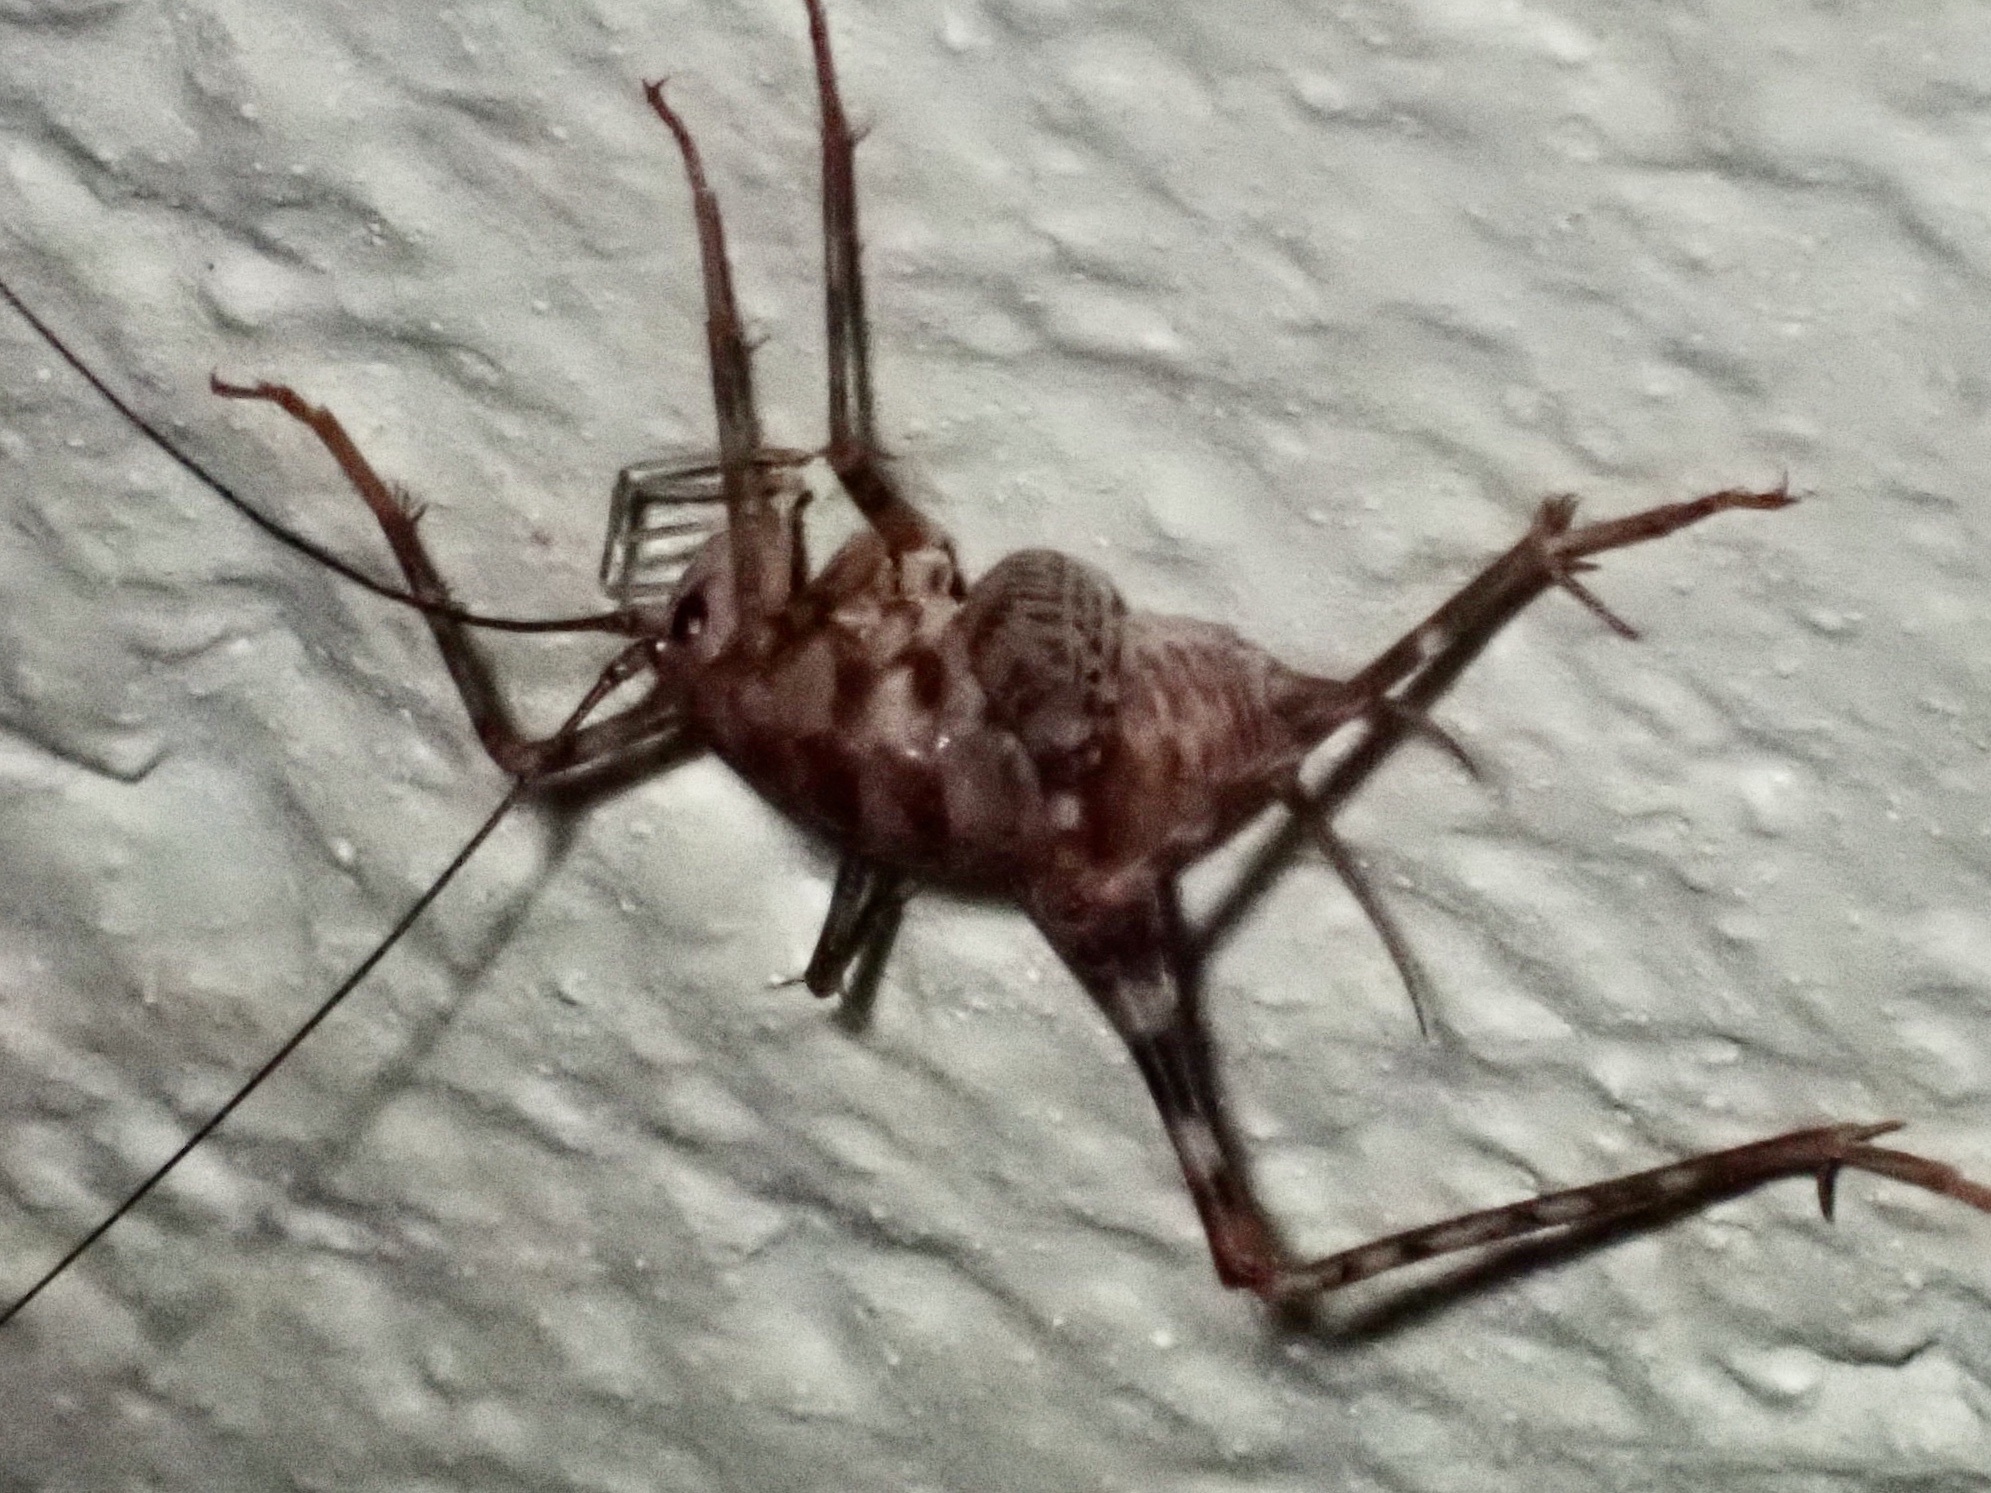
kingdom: Animalia
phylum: Arthropoda
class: Insecta
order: Orthoptera
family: Rhaphidophoridae
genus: Tachycines
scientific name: Tachycines asynamorus
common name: Greenhouse camel cricket
